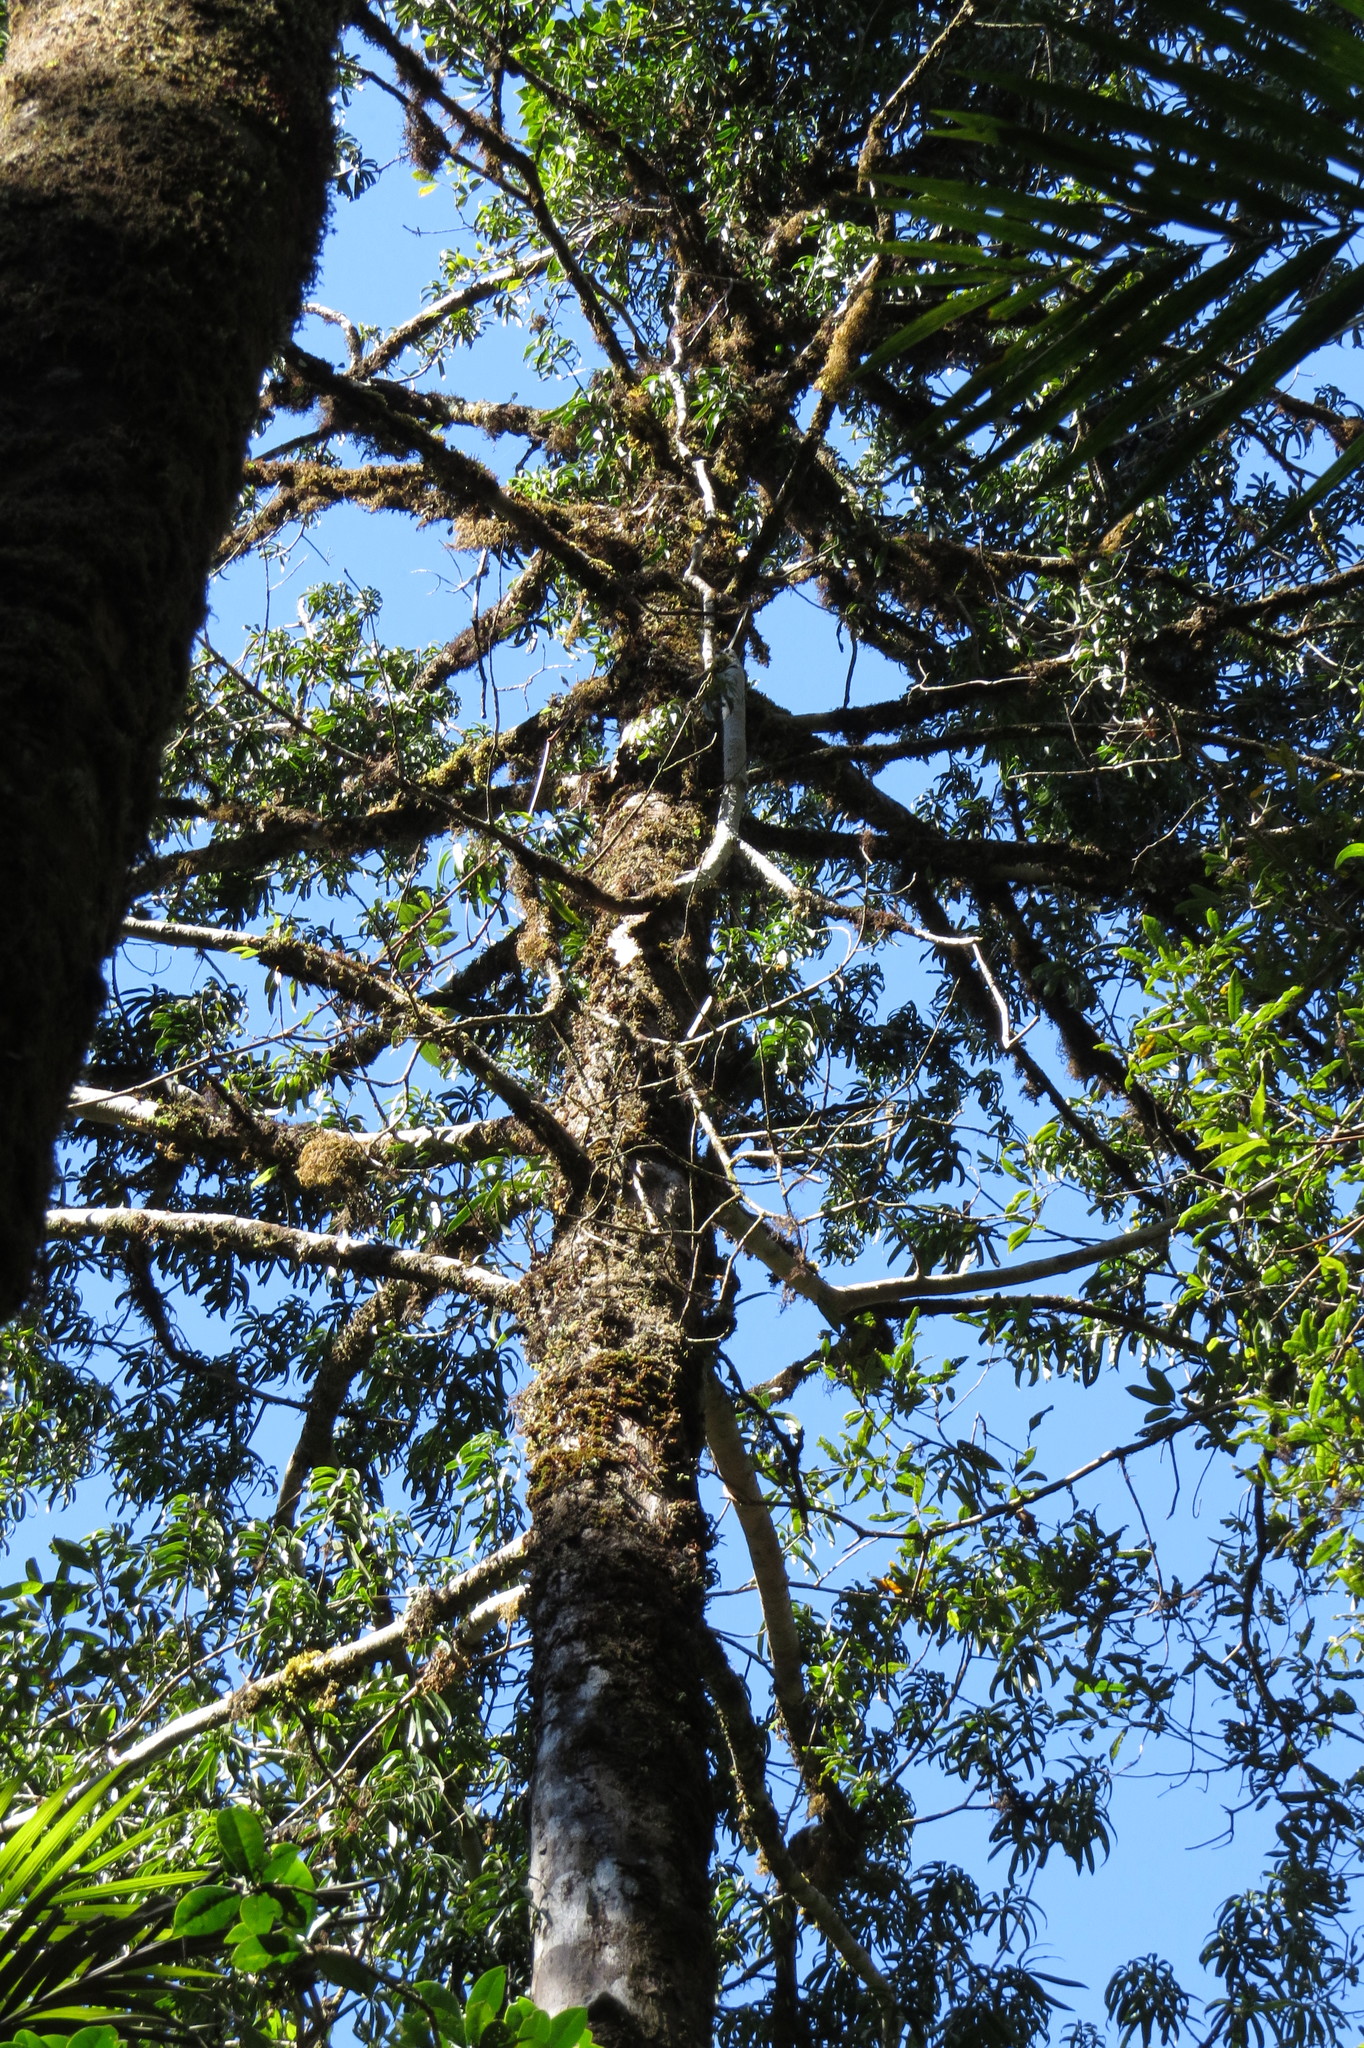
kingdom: Plantae
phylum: Tracheophyta
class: Pinopsida
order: Pinales
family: Podocarpaceae
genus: Podocarpus
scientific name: Podocarpus smithii
